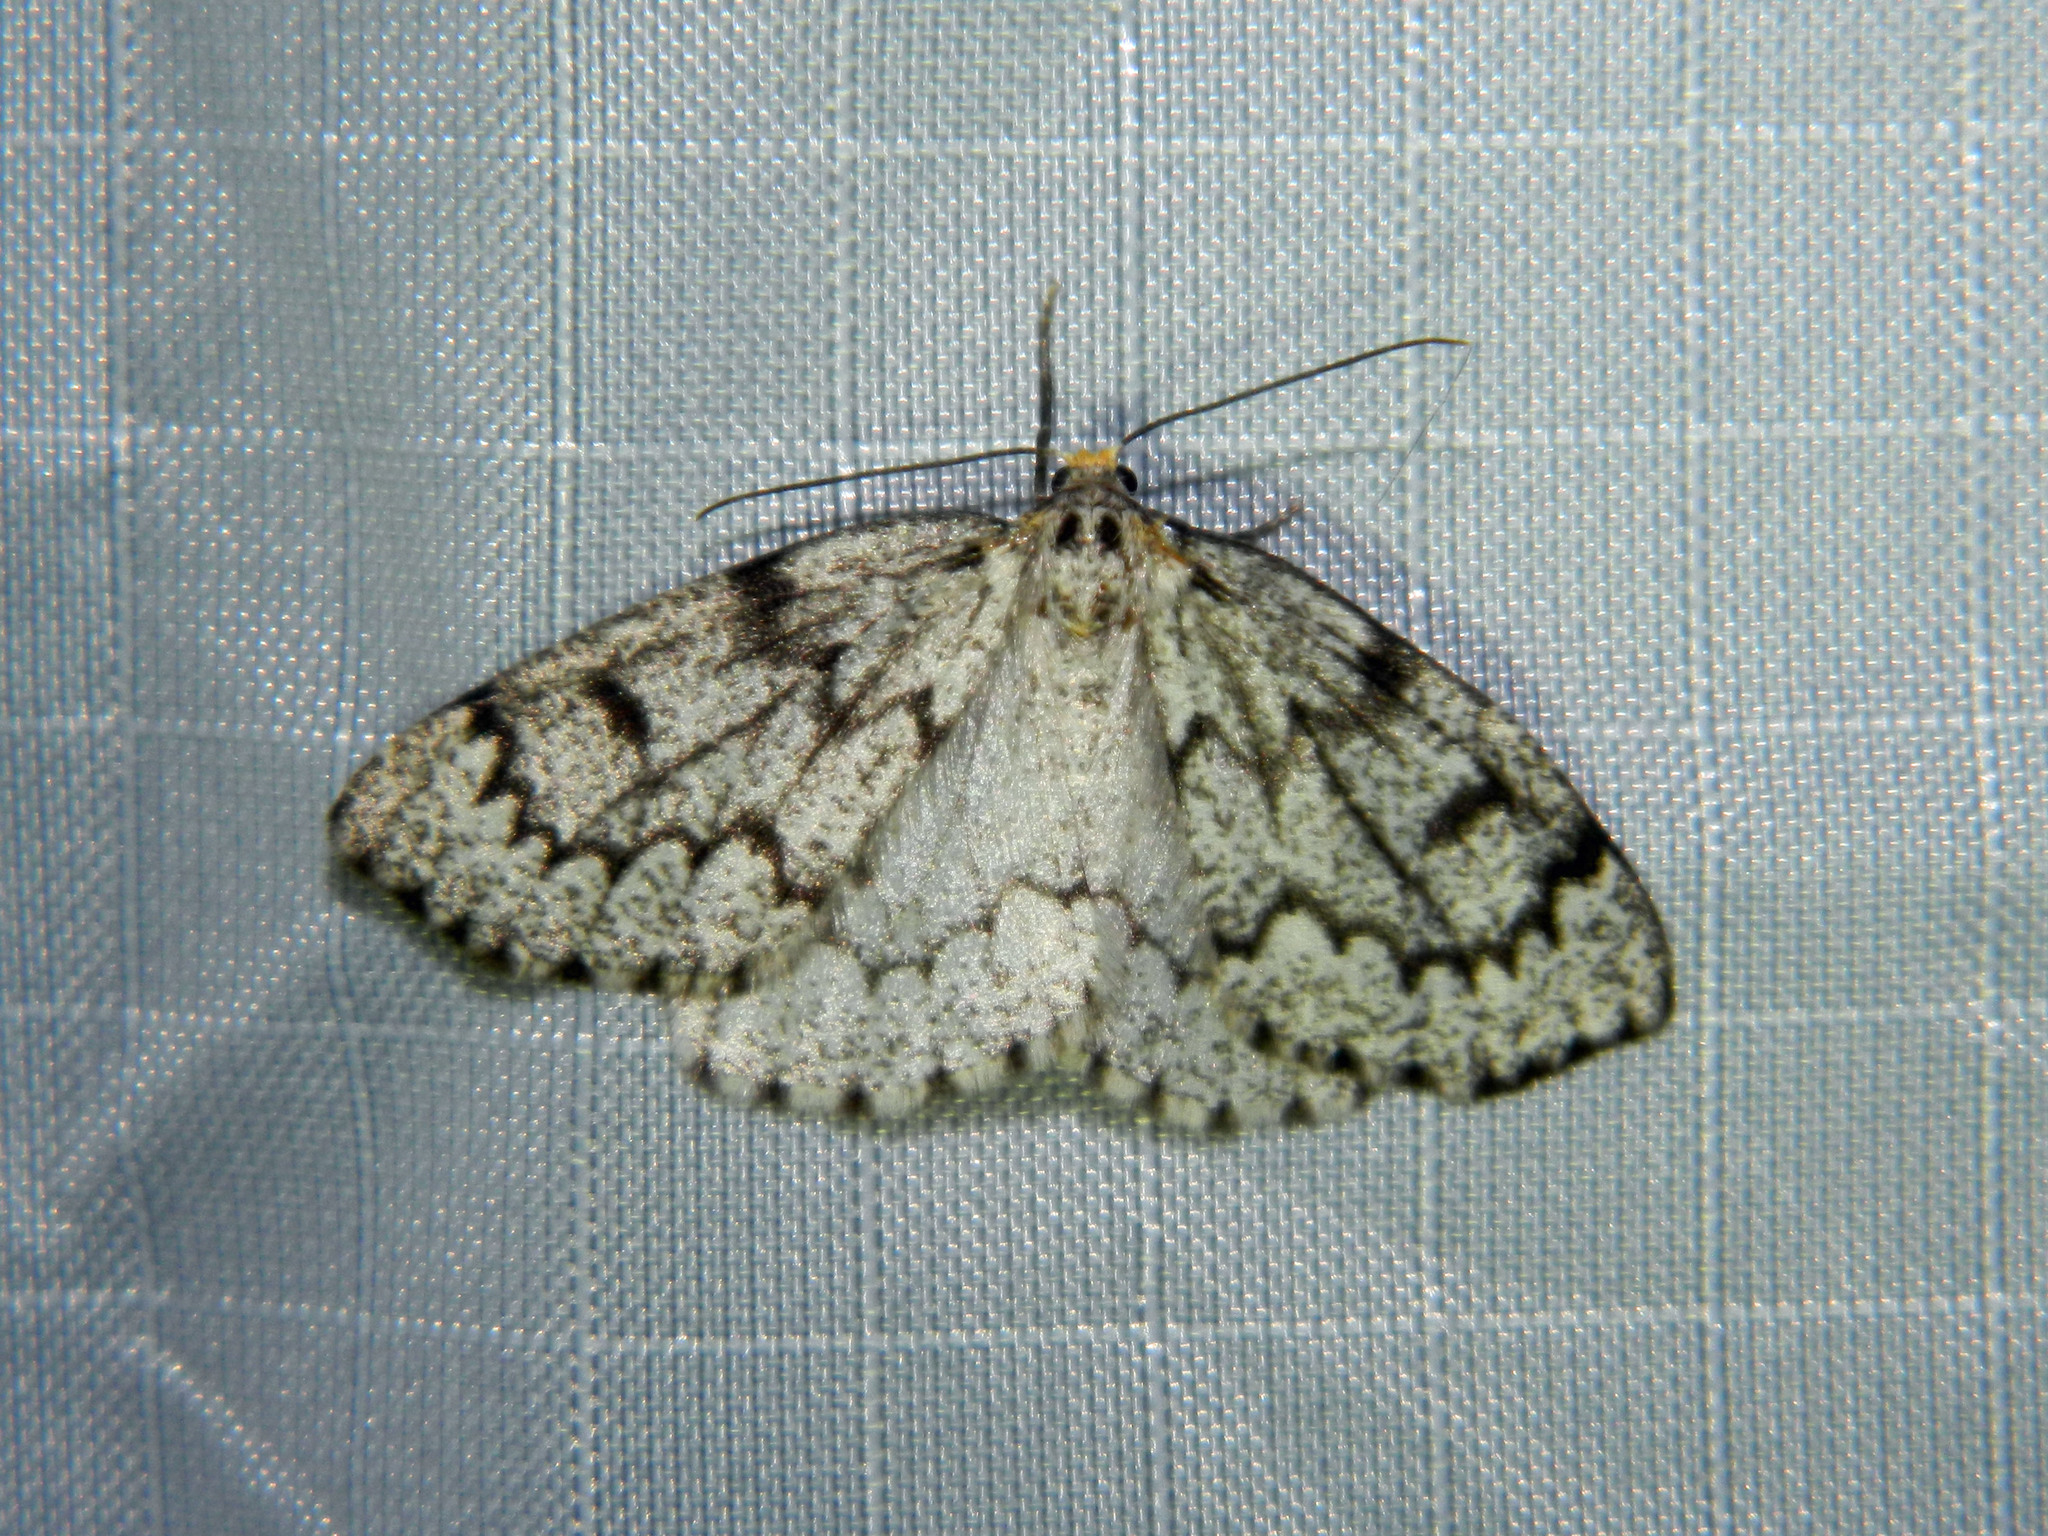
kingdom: Animalia
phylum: Arthropoda
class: Insecta
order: Lepidoptera
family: Geometridae
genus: Nepytia
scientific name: Nepytia canosaria
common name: False hemlock looper
